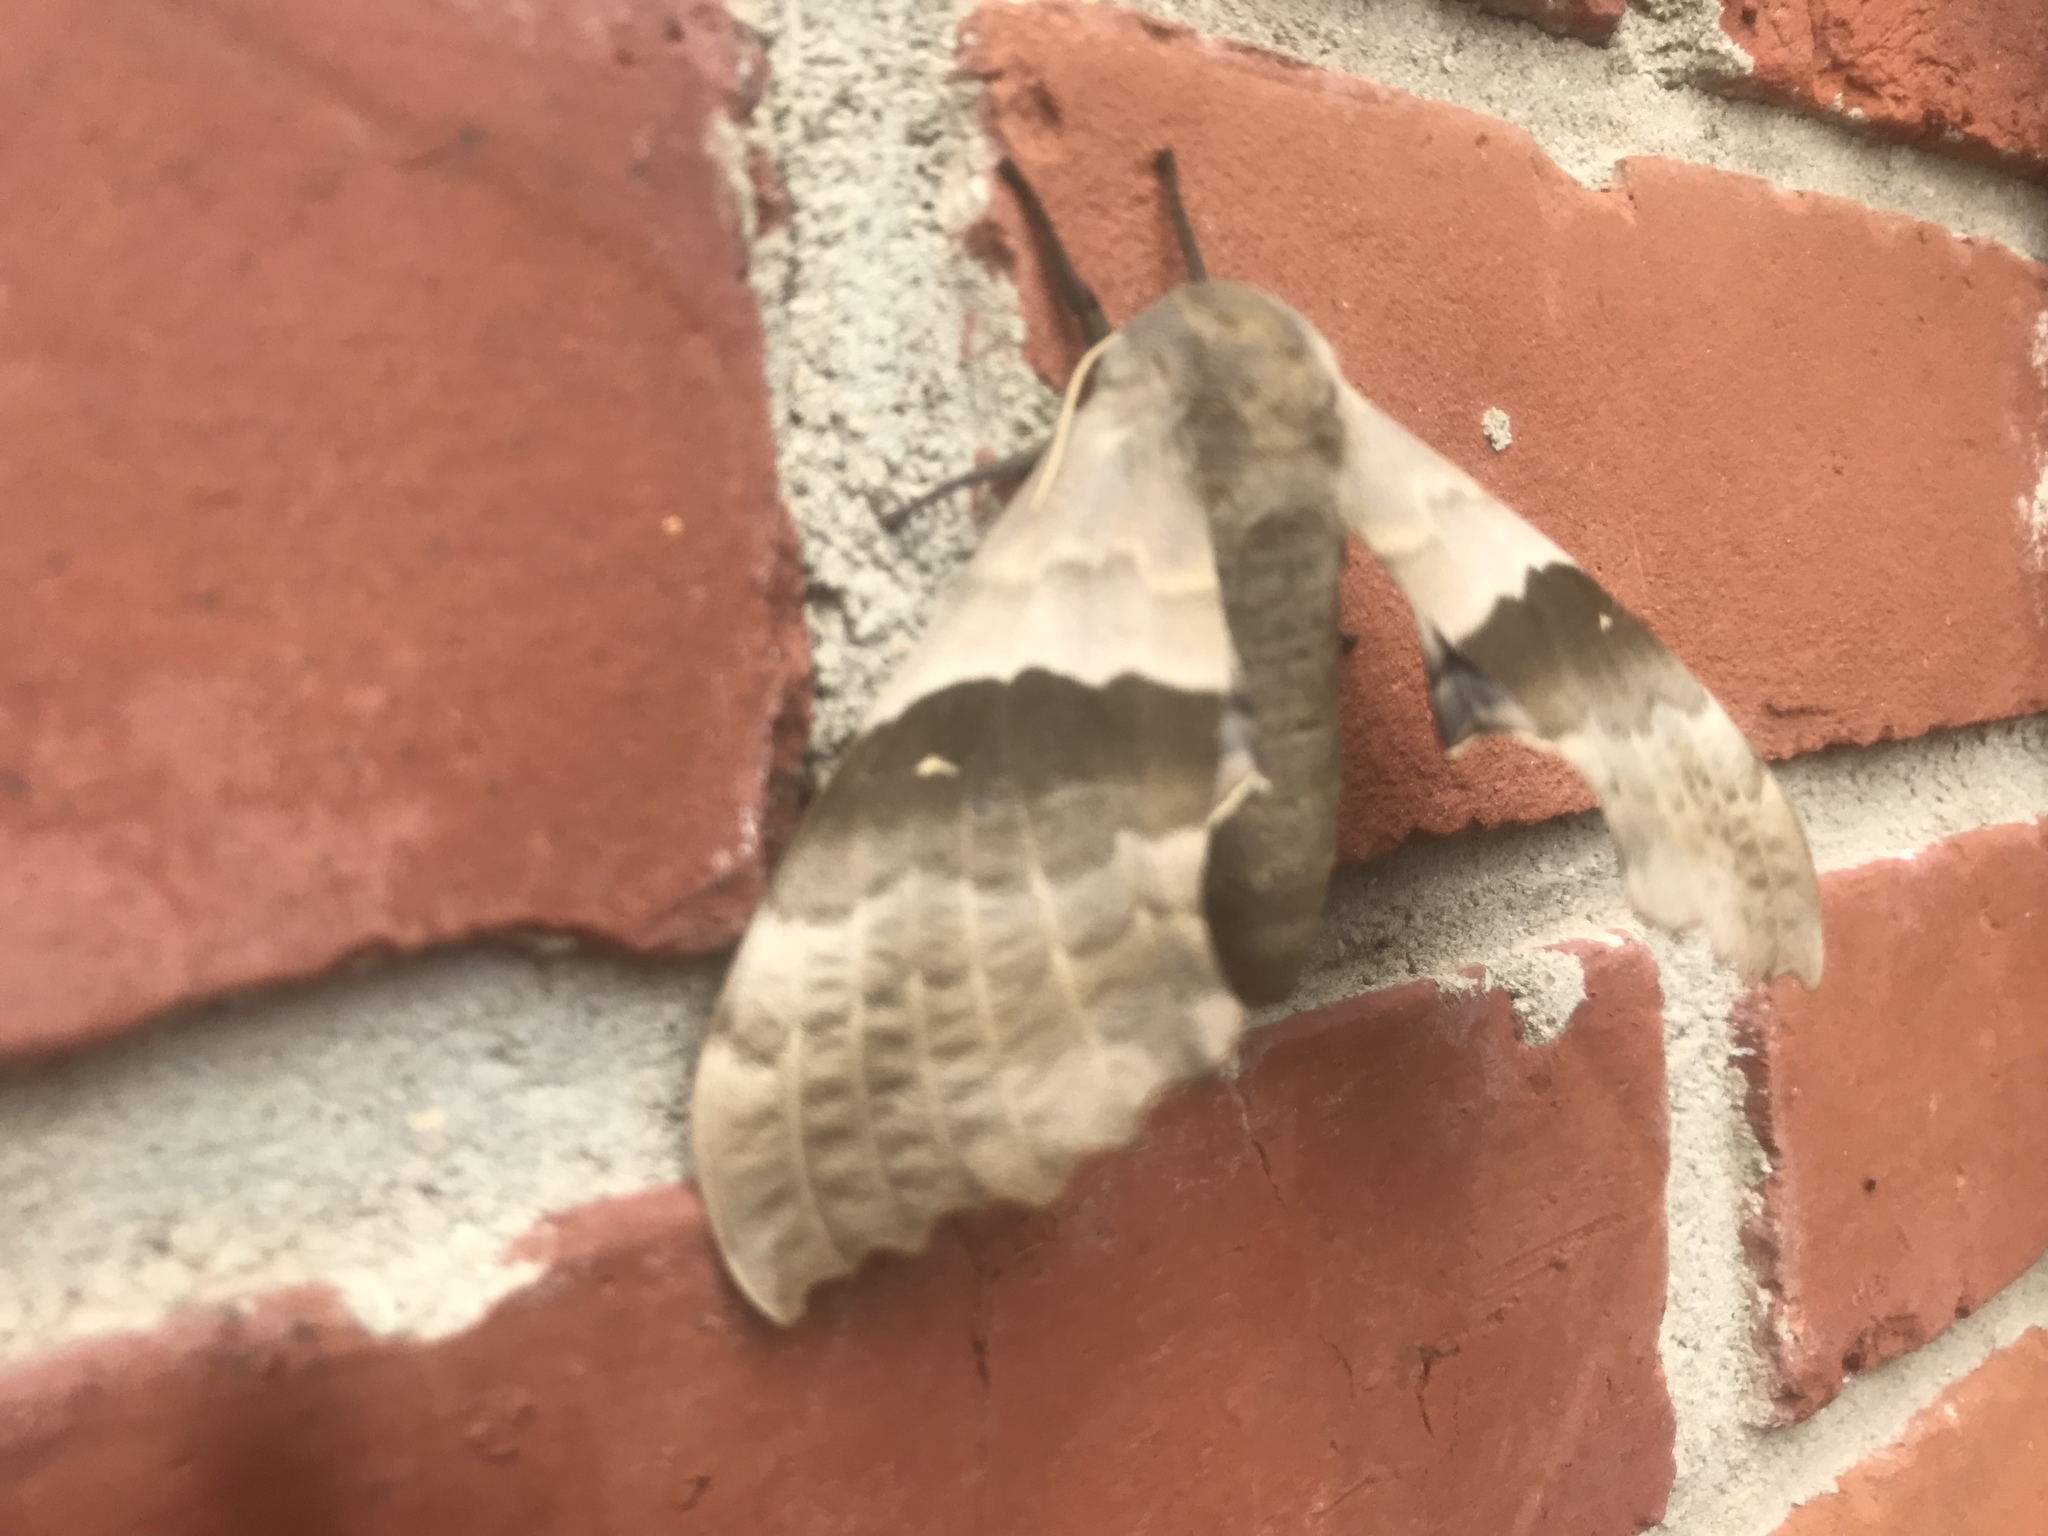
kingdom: Animalia
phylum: Arthropoda
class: Insecta
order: Lepidoptera
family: Sphingidae
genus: Pachysphinx
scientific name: Pachysphinx modesta
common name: Big poplar sphinx
